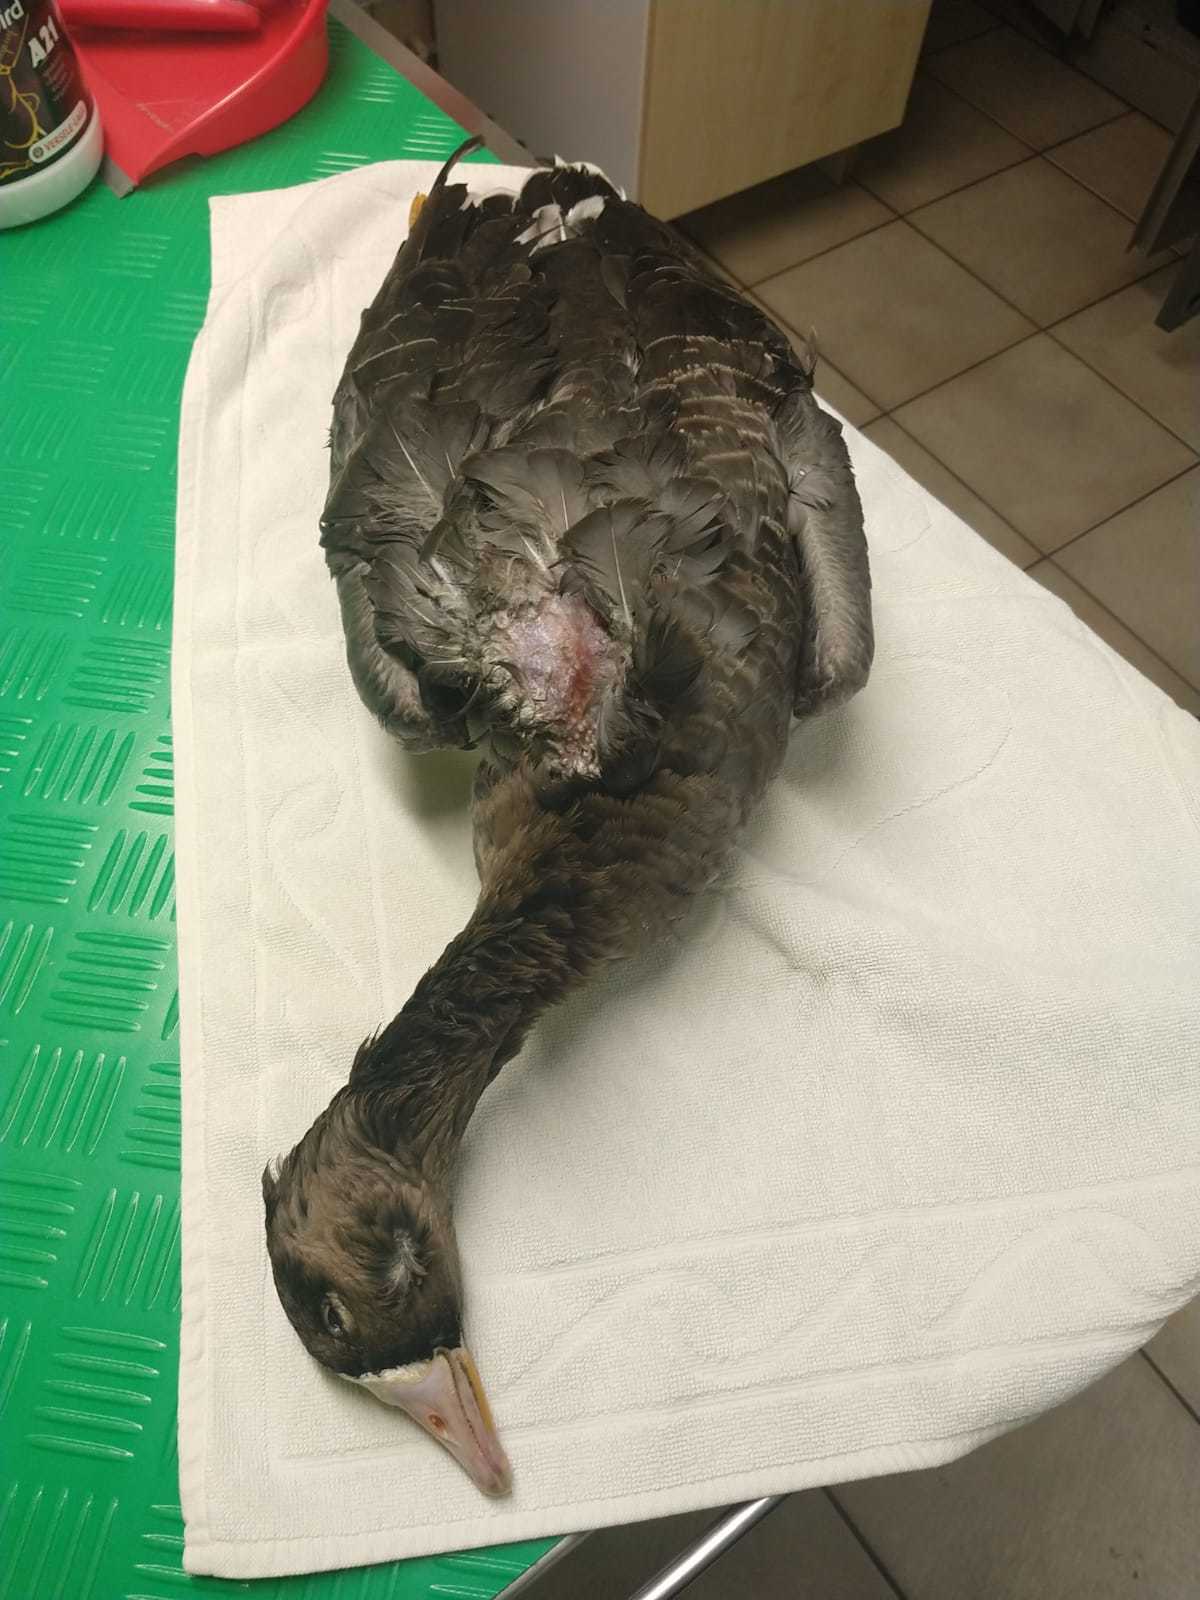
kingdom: Animalia
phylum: Chordata
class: Aves
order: Anseriformes
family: Anatidae
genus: Anser
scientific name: Anser albifrons
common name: Greater white-fronted goose
